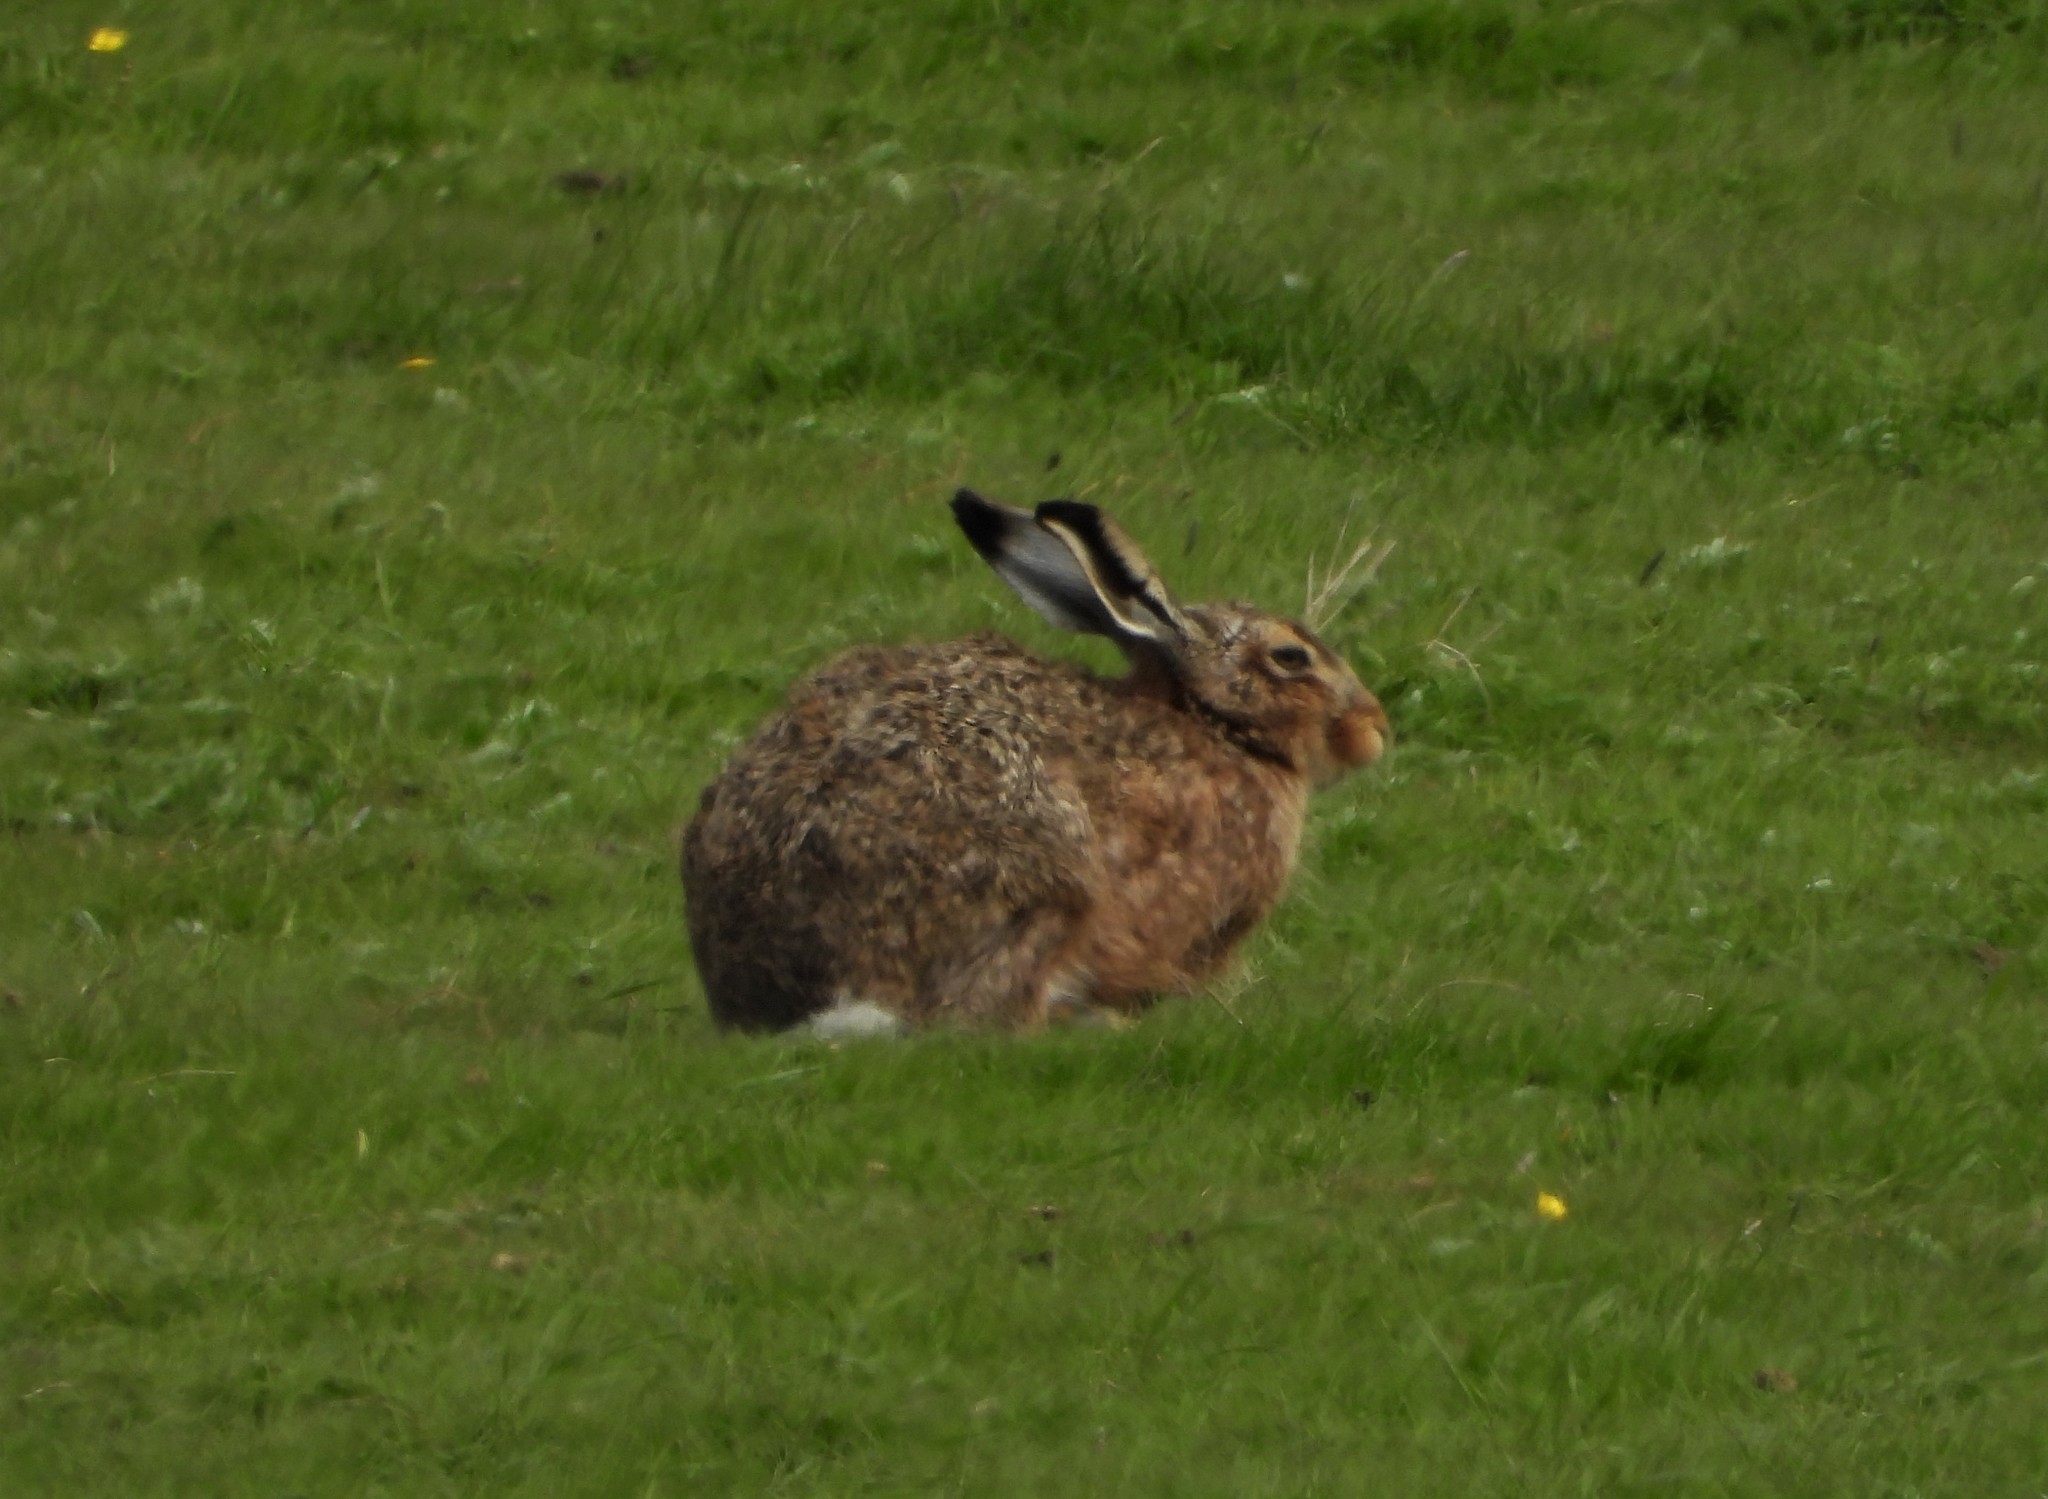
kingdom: Animalia
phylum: Chordata
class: Mammalia
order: Lagomorpha
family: Leporidae
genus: Lepus
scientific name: Lepus europaeus
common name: European hare
